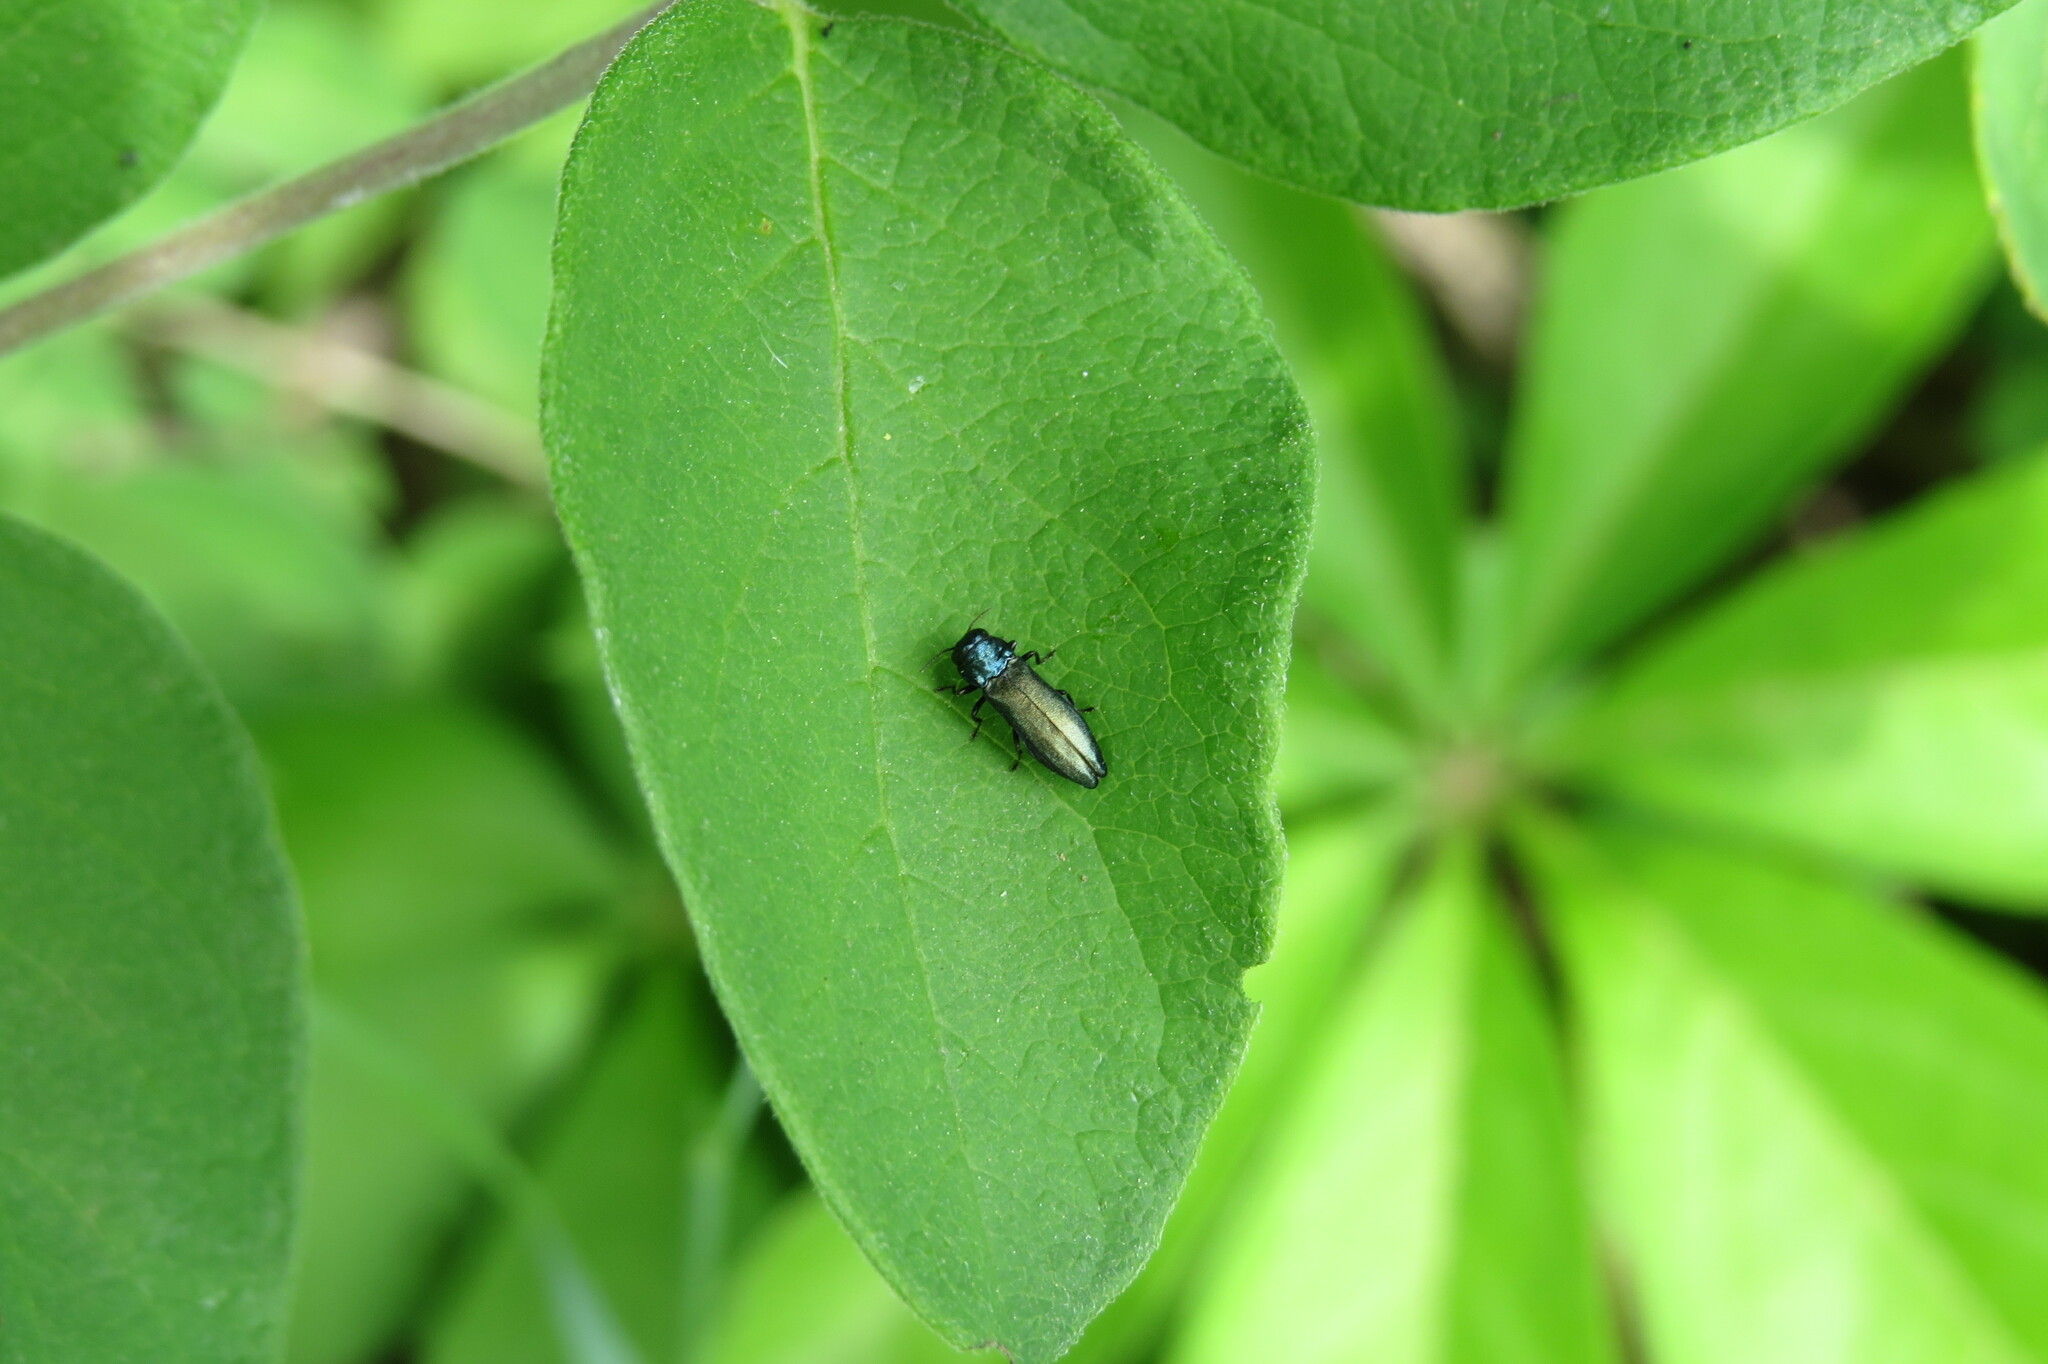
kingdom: Animalia
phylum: Arthropoda
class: Insecta
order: Coleoptera
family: Buprestidae
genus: Agrilus
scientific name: Agrilus cyanescens
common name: Bluish borer beetle
